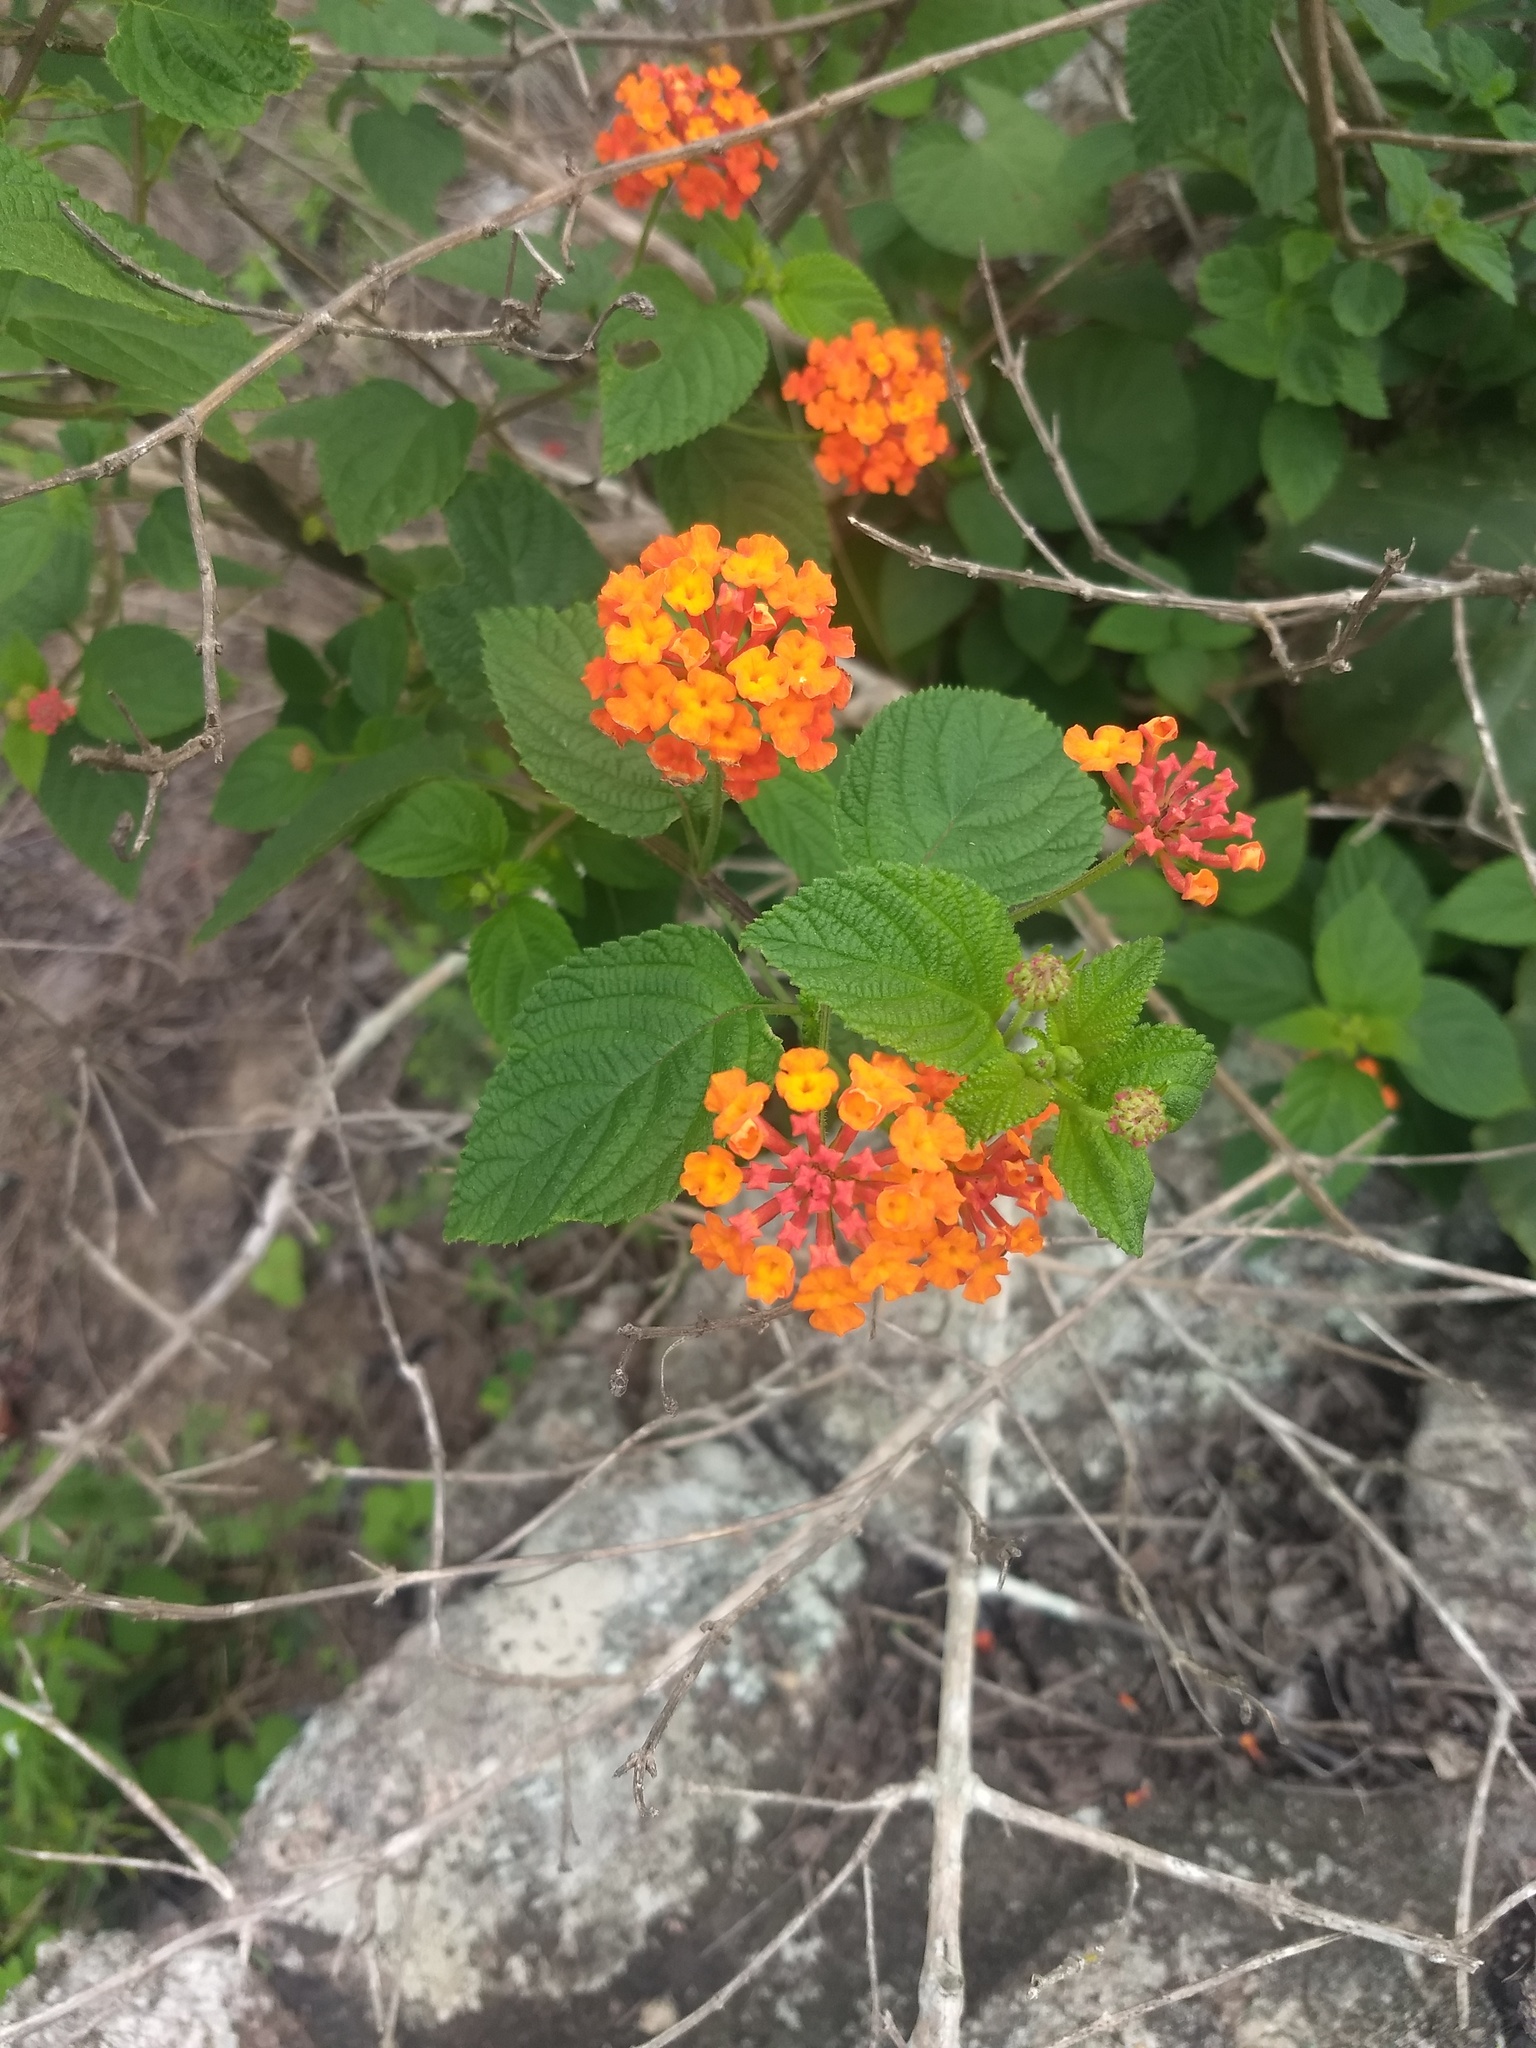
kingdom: Plantae
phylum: Tracheophyta
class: Magnoliopsida
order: Lamiales
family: Verbenaceae
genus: Lantana
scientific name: Lantana camara
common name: Lantana
